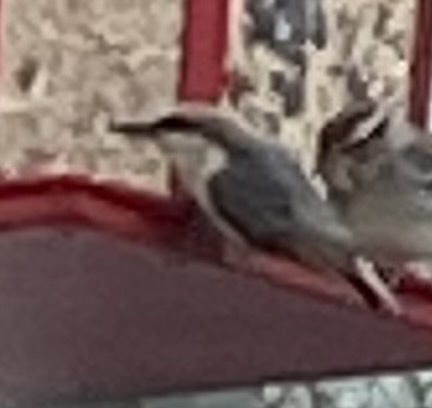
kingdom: Animalia
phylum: Chordata
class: Aves
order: Passeriformes
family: Sittidae
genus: Sitta
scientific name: Sitta pusilla
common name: Brown-headed nuthatch
